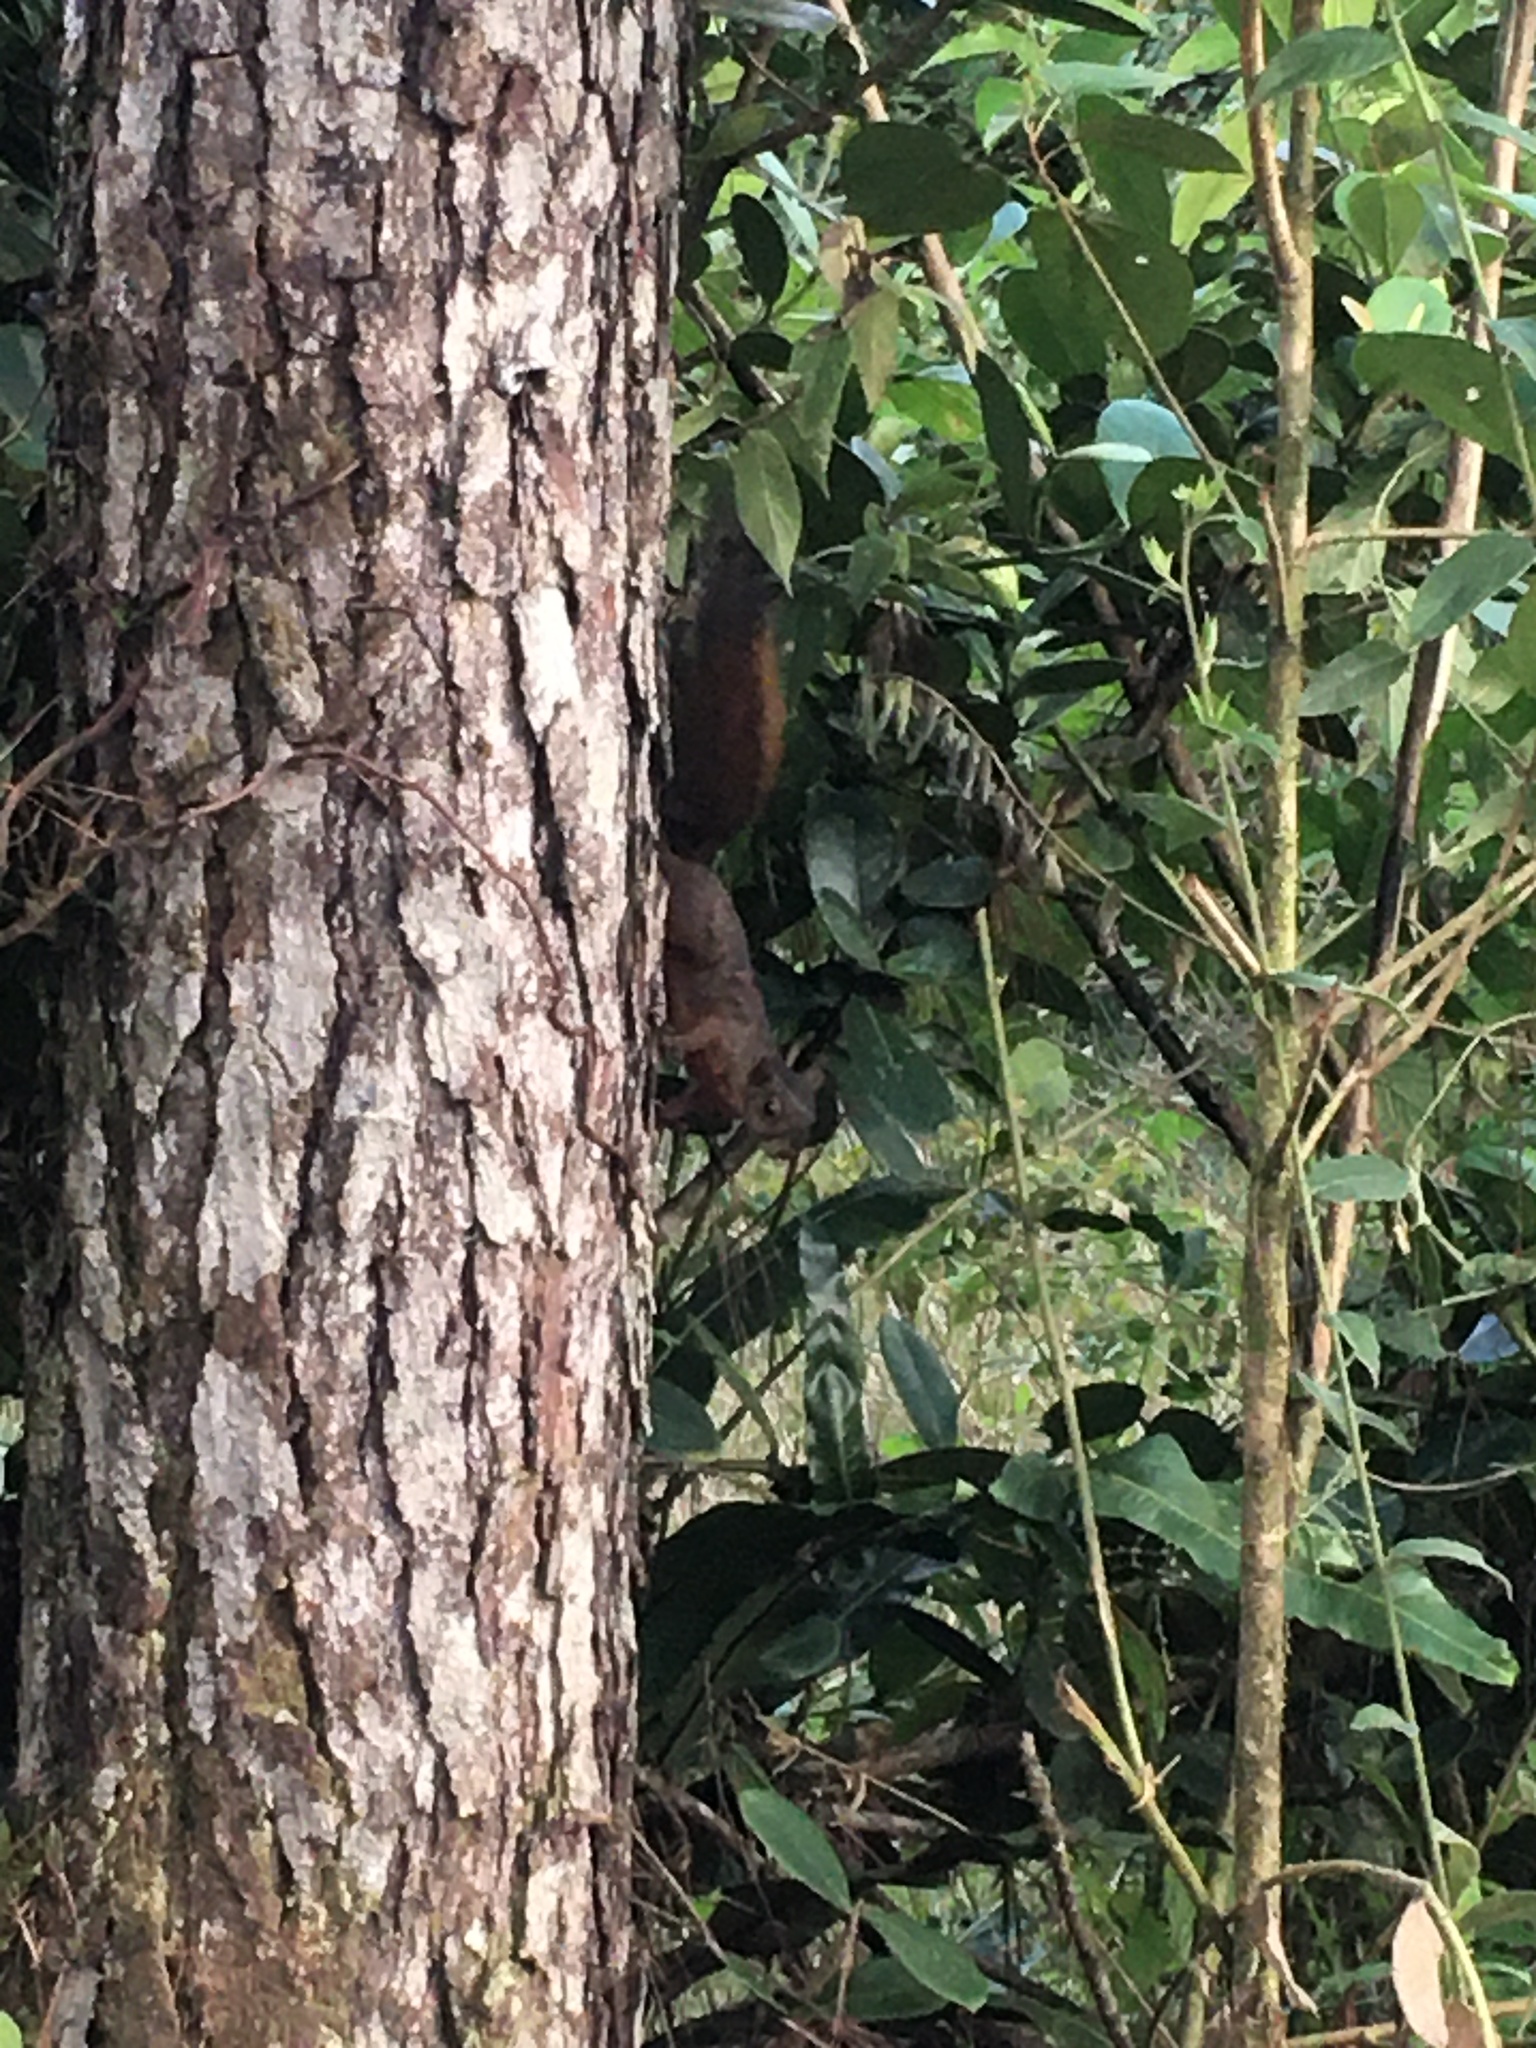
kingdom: Animalia
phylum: Chordata
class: Mammalia
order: Rodentia
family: Sciuridae
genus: Sciurus
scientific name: Sciurus variegatoides
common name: Variegated squirrel
